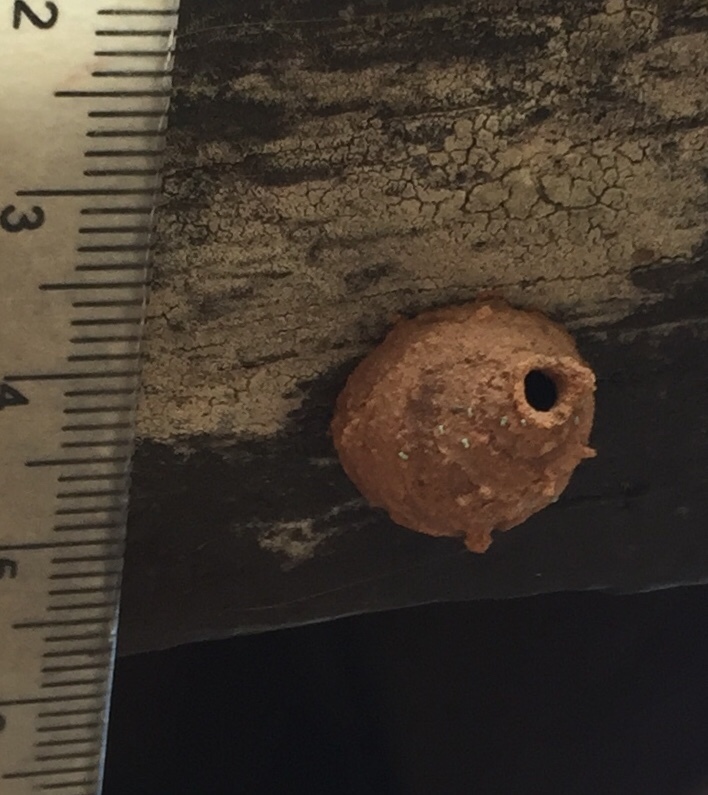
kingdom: Animalia
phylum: Arthropoda
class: Insecta
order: Hymenoptera
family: Vespidae
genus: Eumenes
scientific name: Eumenes
